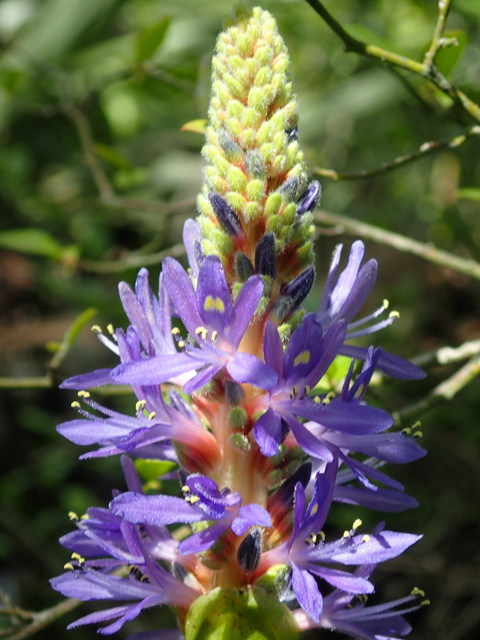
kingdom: Plantae
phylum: Tracheophyta
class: Liliopsida
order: Commelinales
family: Pontederiaceae
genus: Pontederia
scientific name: Pontederia cordata
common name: Pickerelweed
